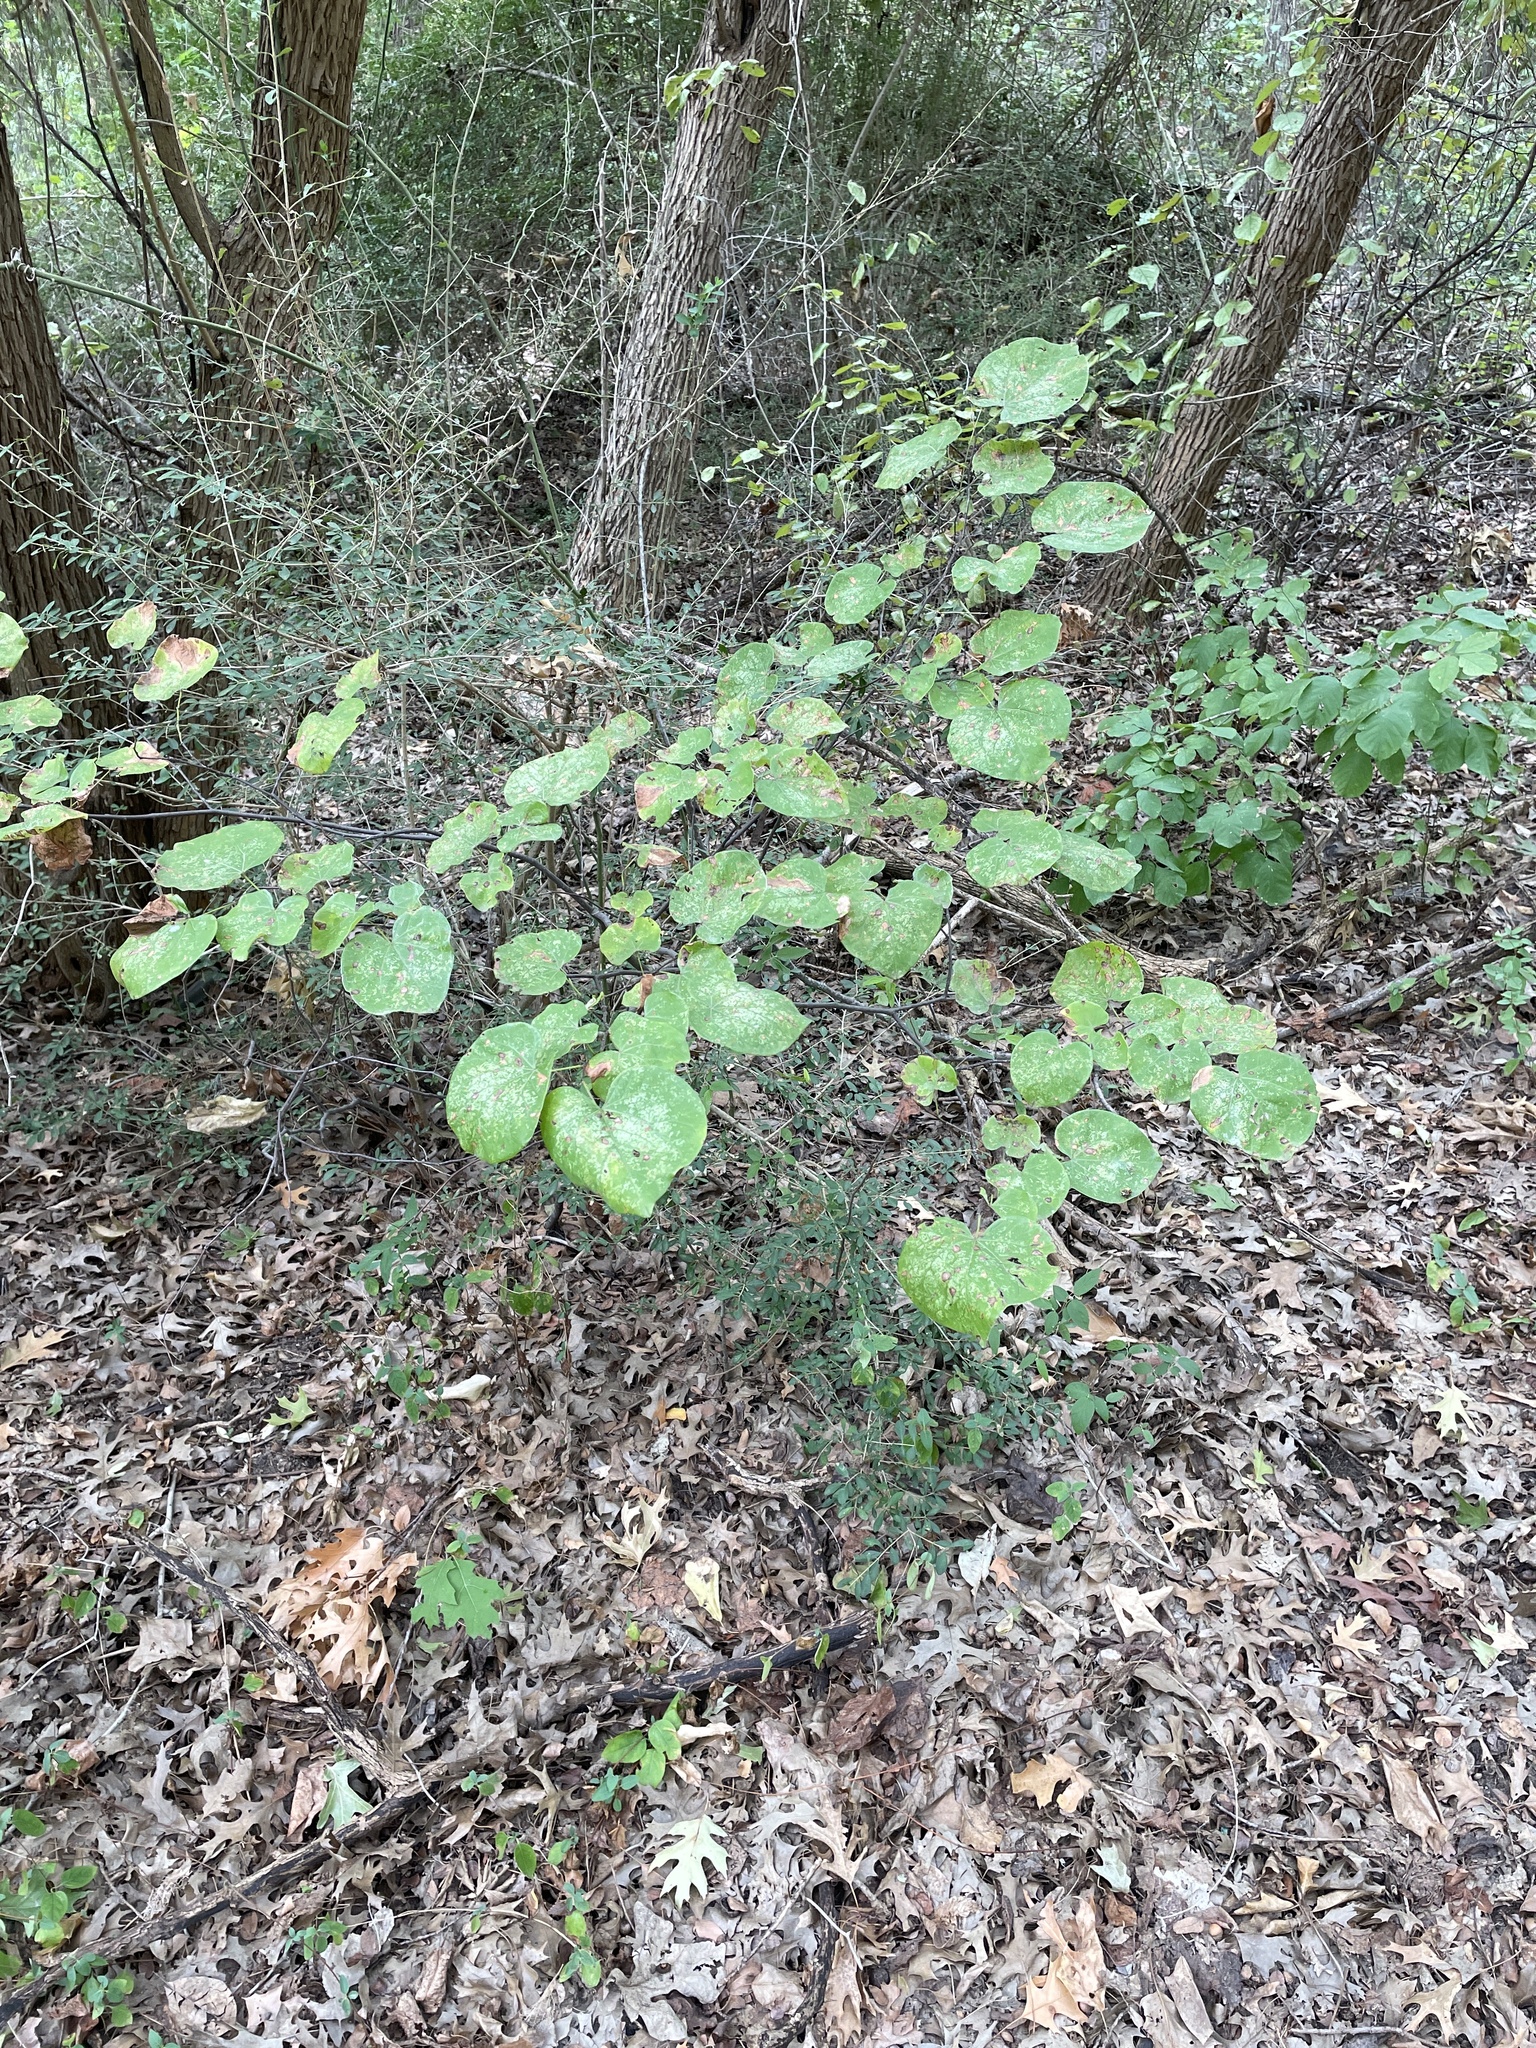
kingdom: Plantae
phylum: Tracheophyta
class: Magnoliopsida
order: Fabales
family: Fabaceae
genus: Cercis
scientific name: Cercis canadensis
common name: Eastern redbud
